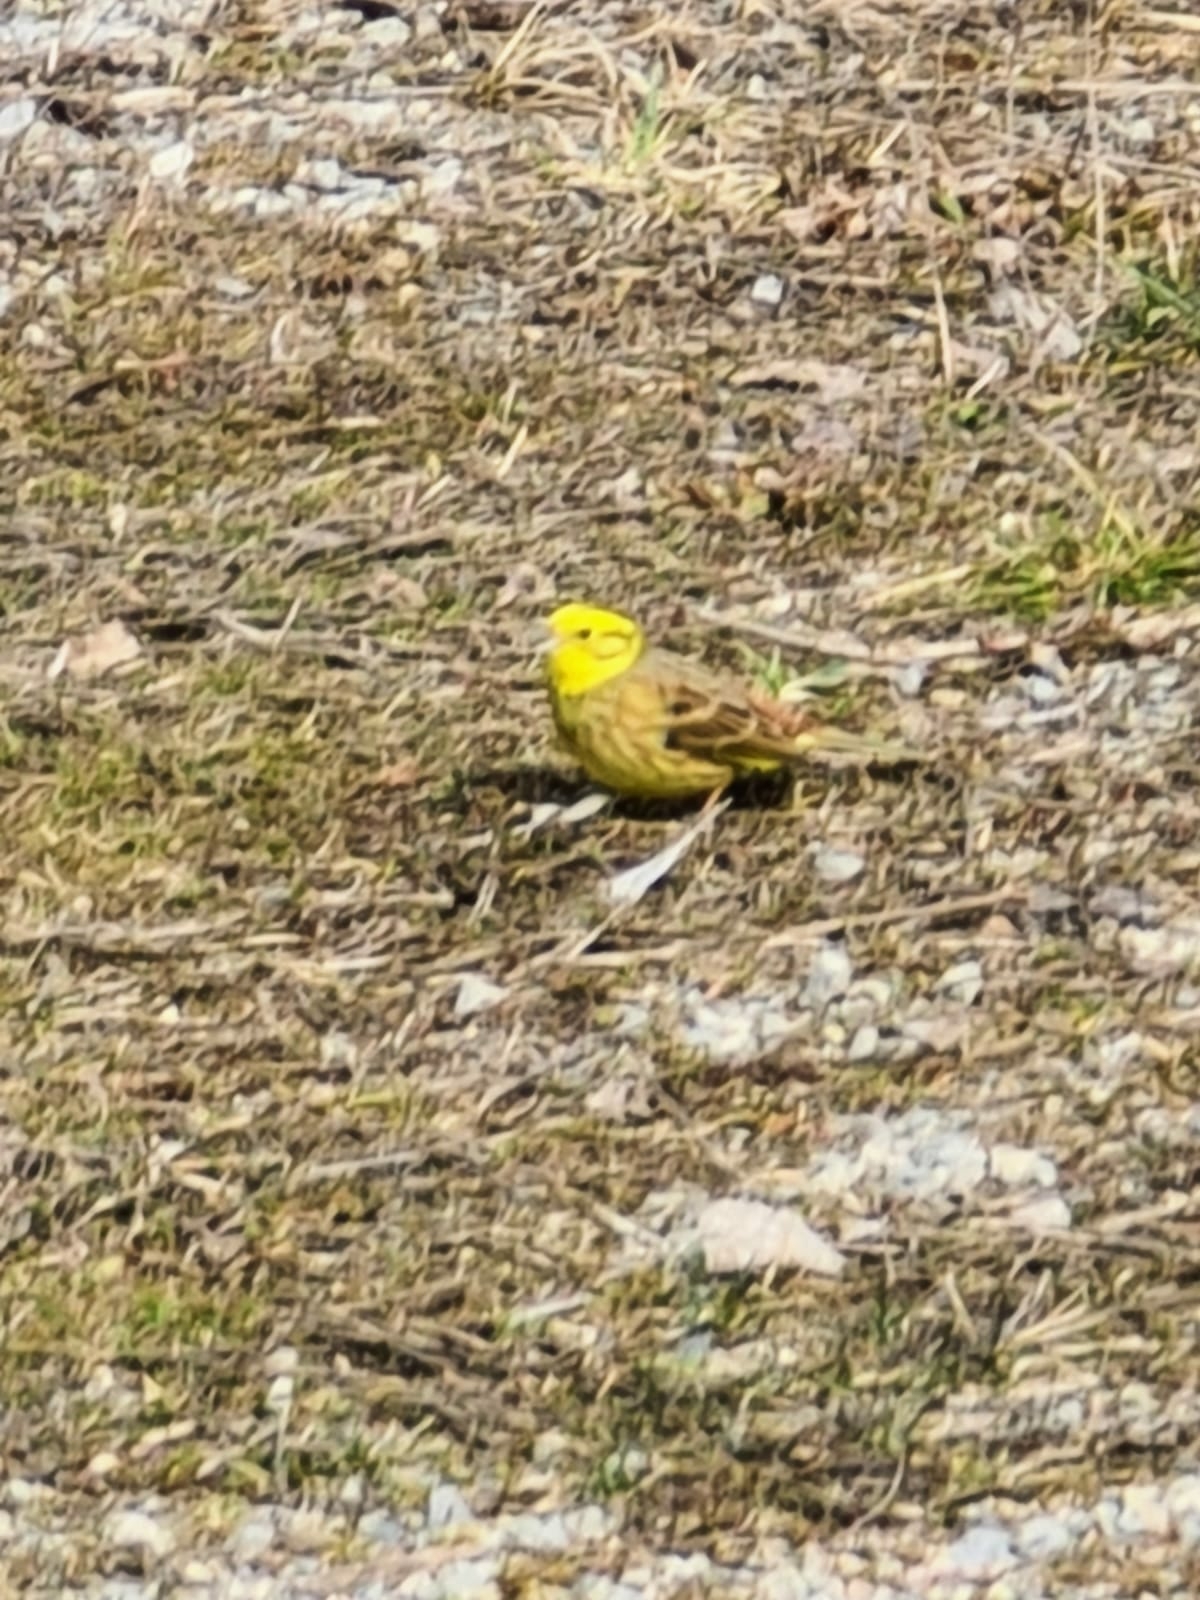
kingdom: Animalia
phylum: Chordata
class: Aves
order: Passeriformes
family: Emberizidae
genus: Emberiza
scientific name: Emberiza citrinella
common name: Yellowhammer
